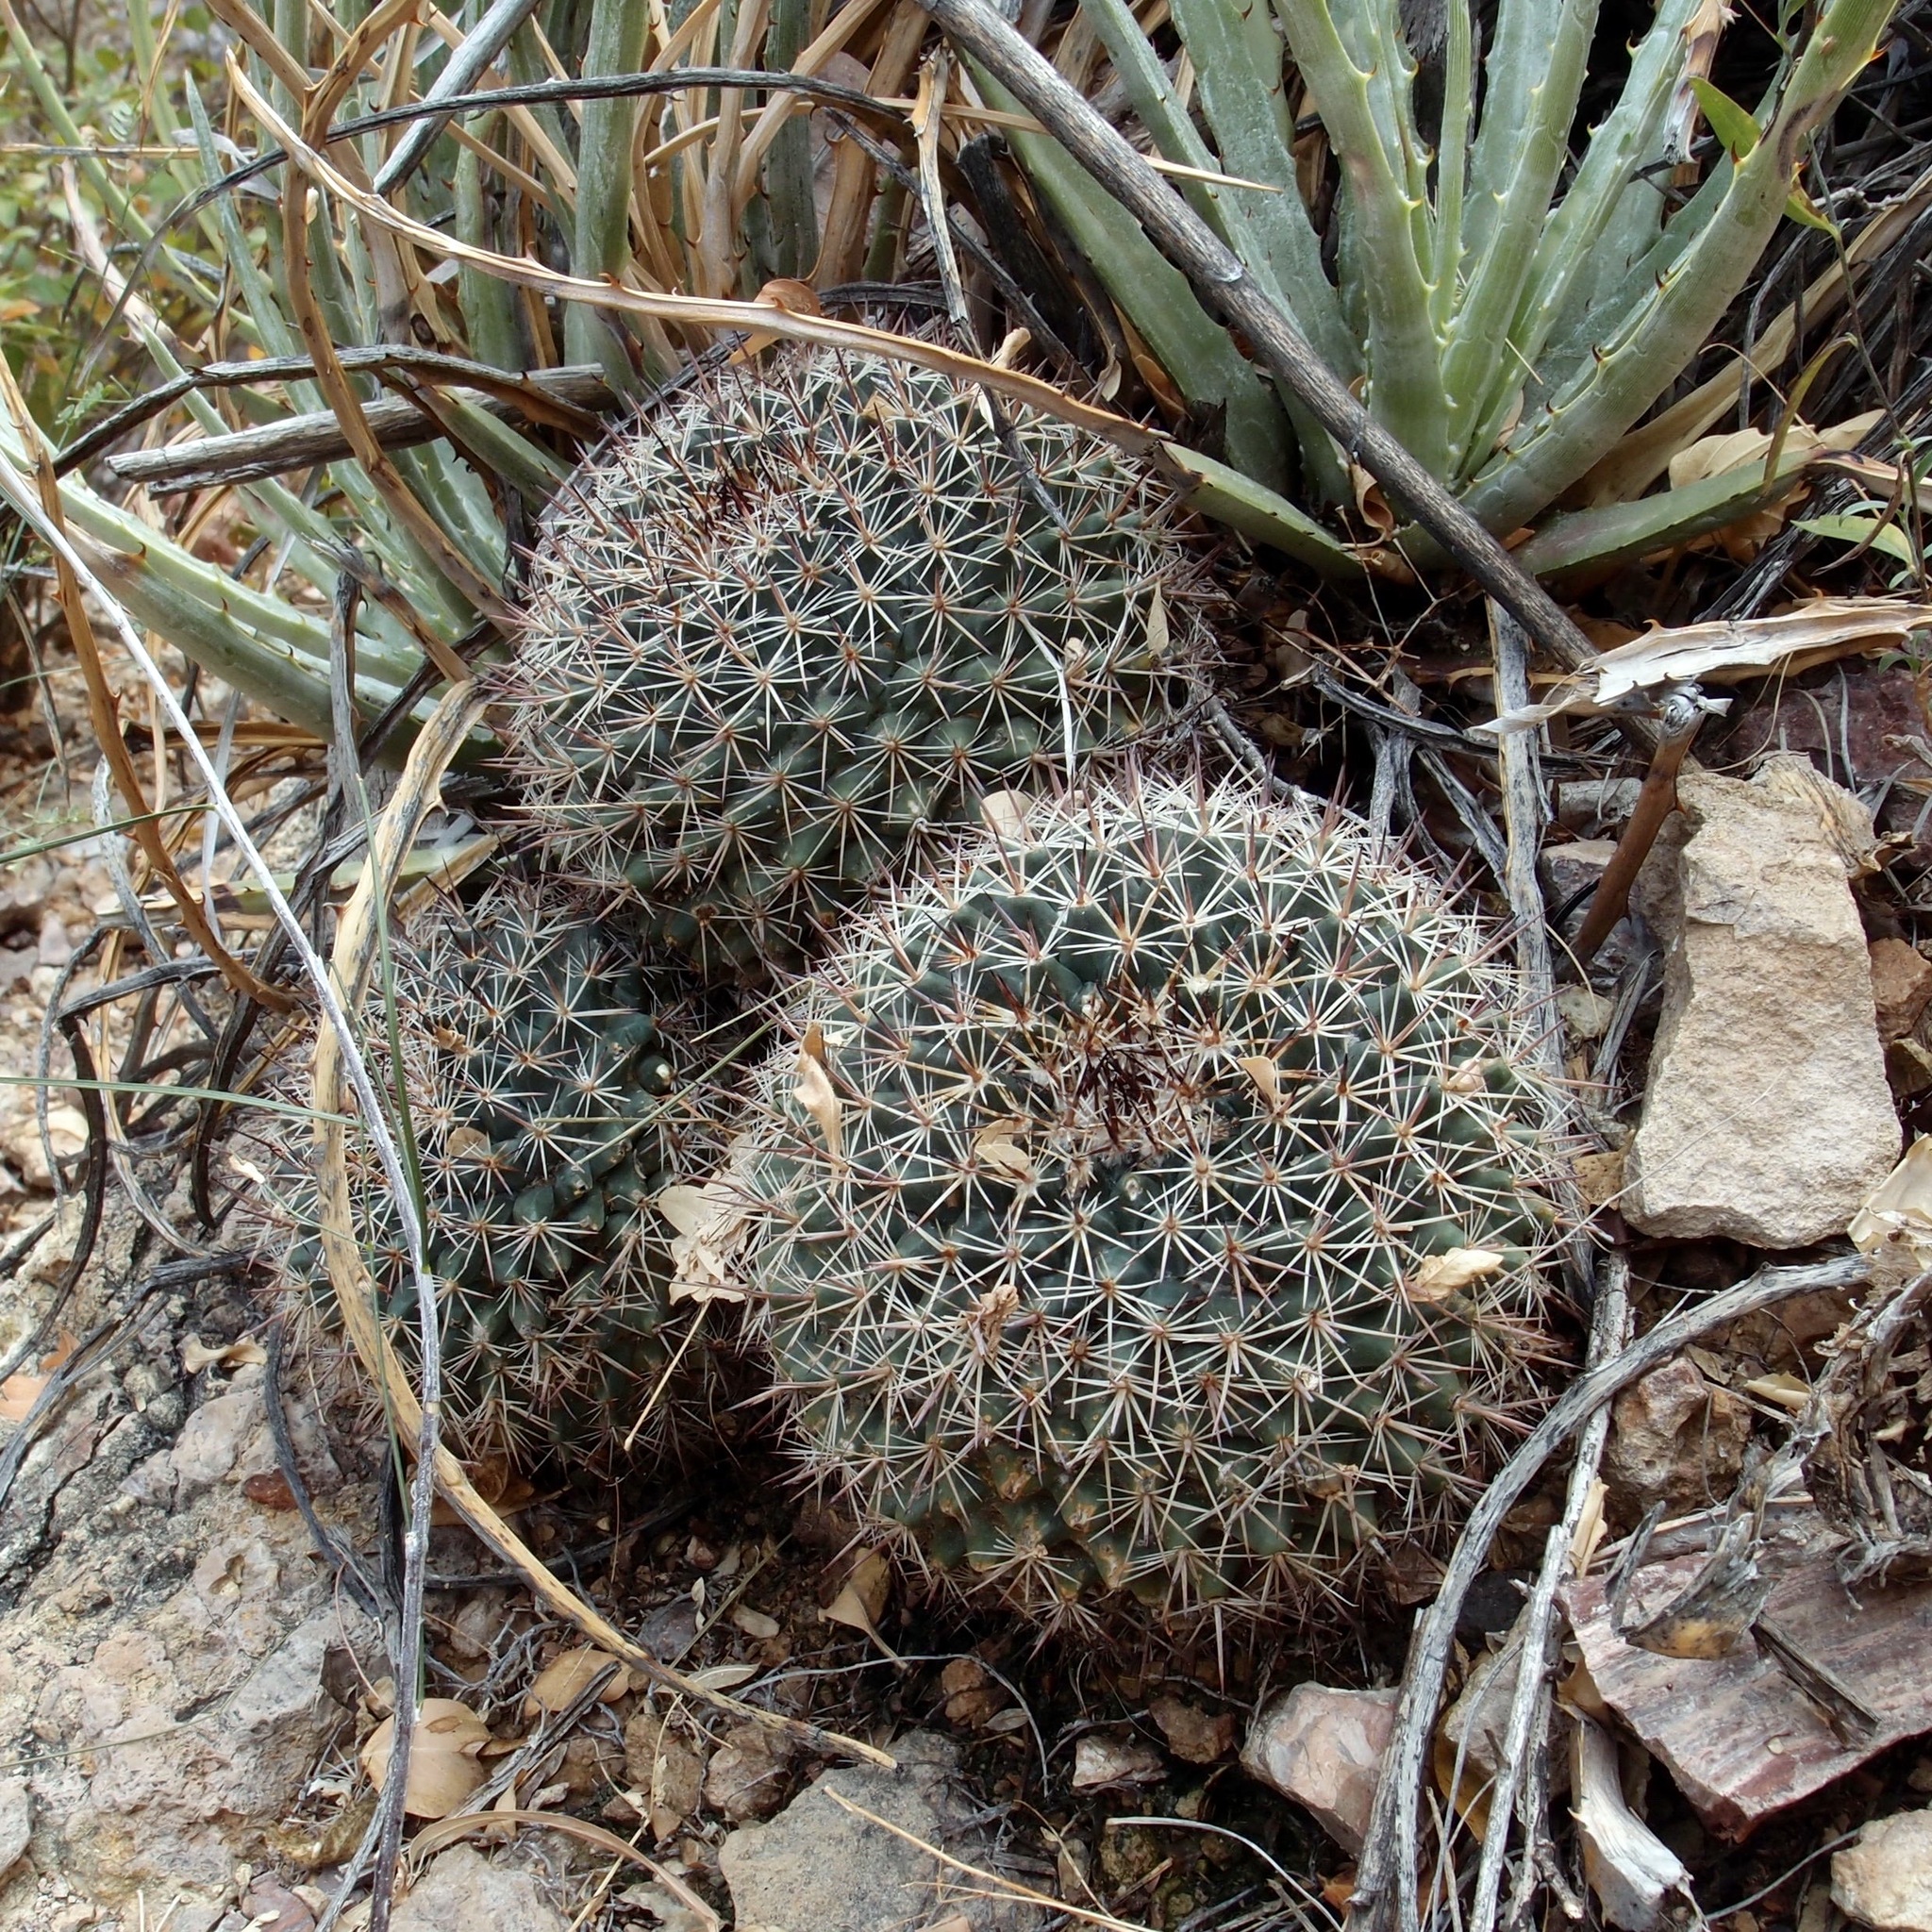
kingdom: Plantae
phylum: Tracheophyta
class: Magnoliopsida
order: Caryophyllales
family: Cactaceae
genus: Mammillaria
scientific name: Mammillaria johnstonii
